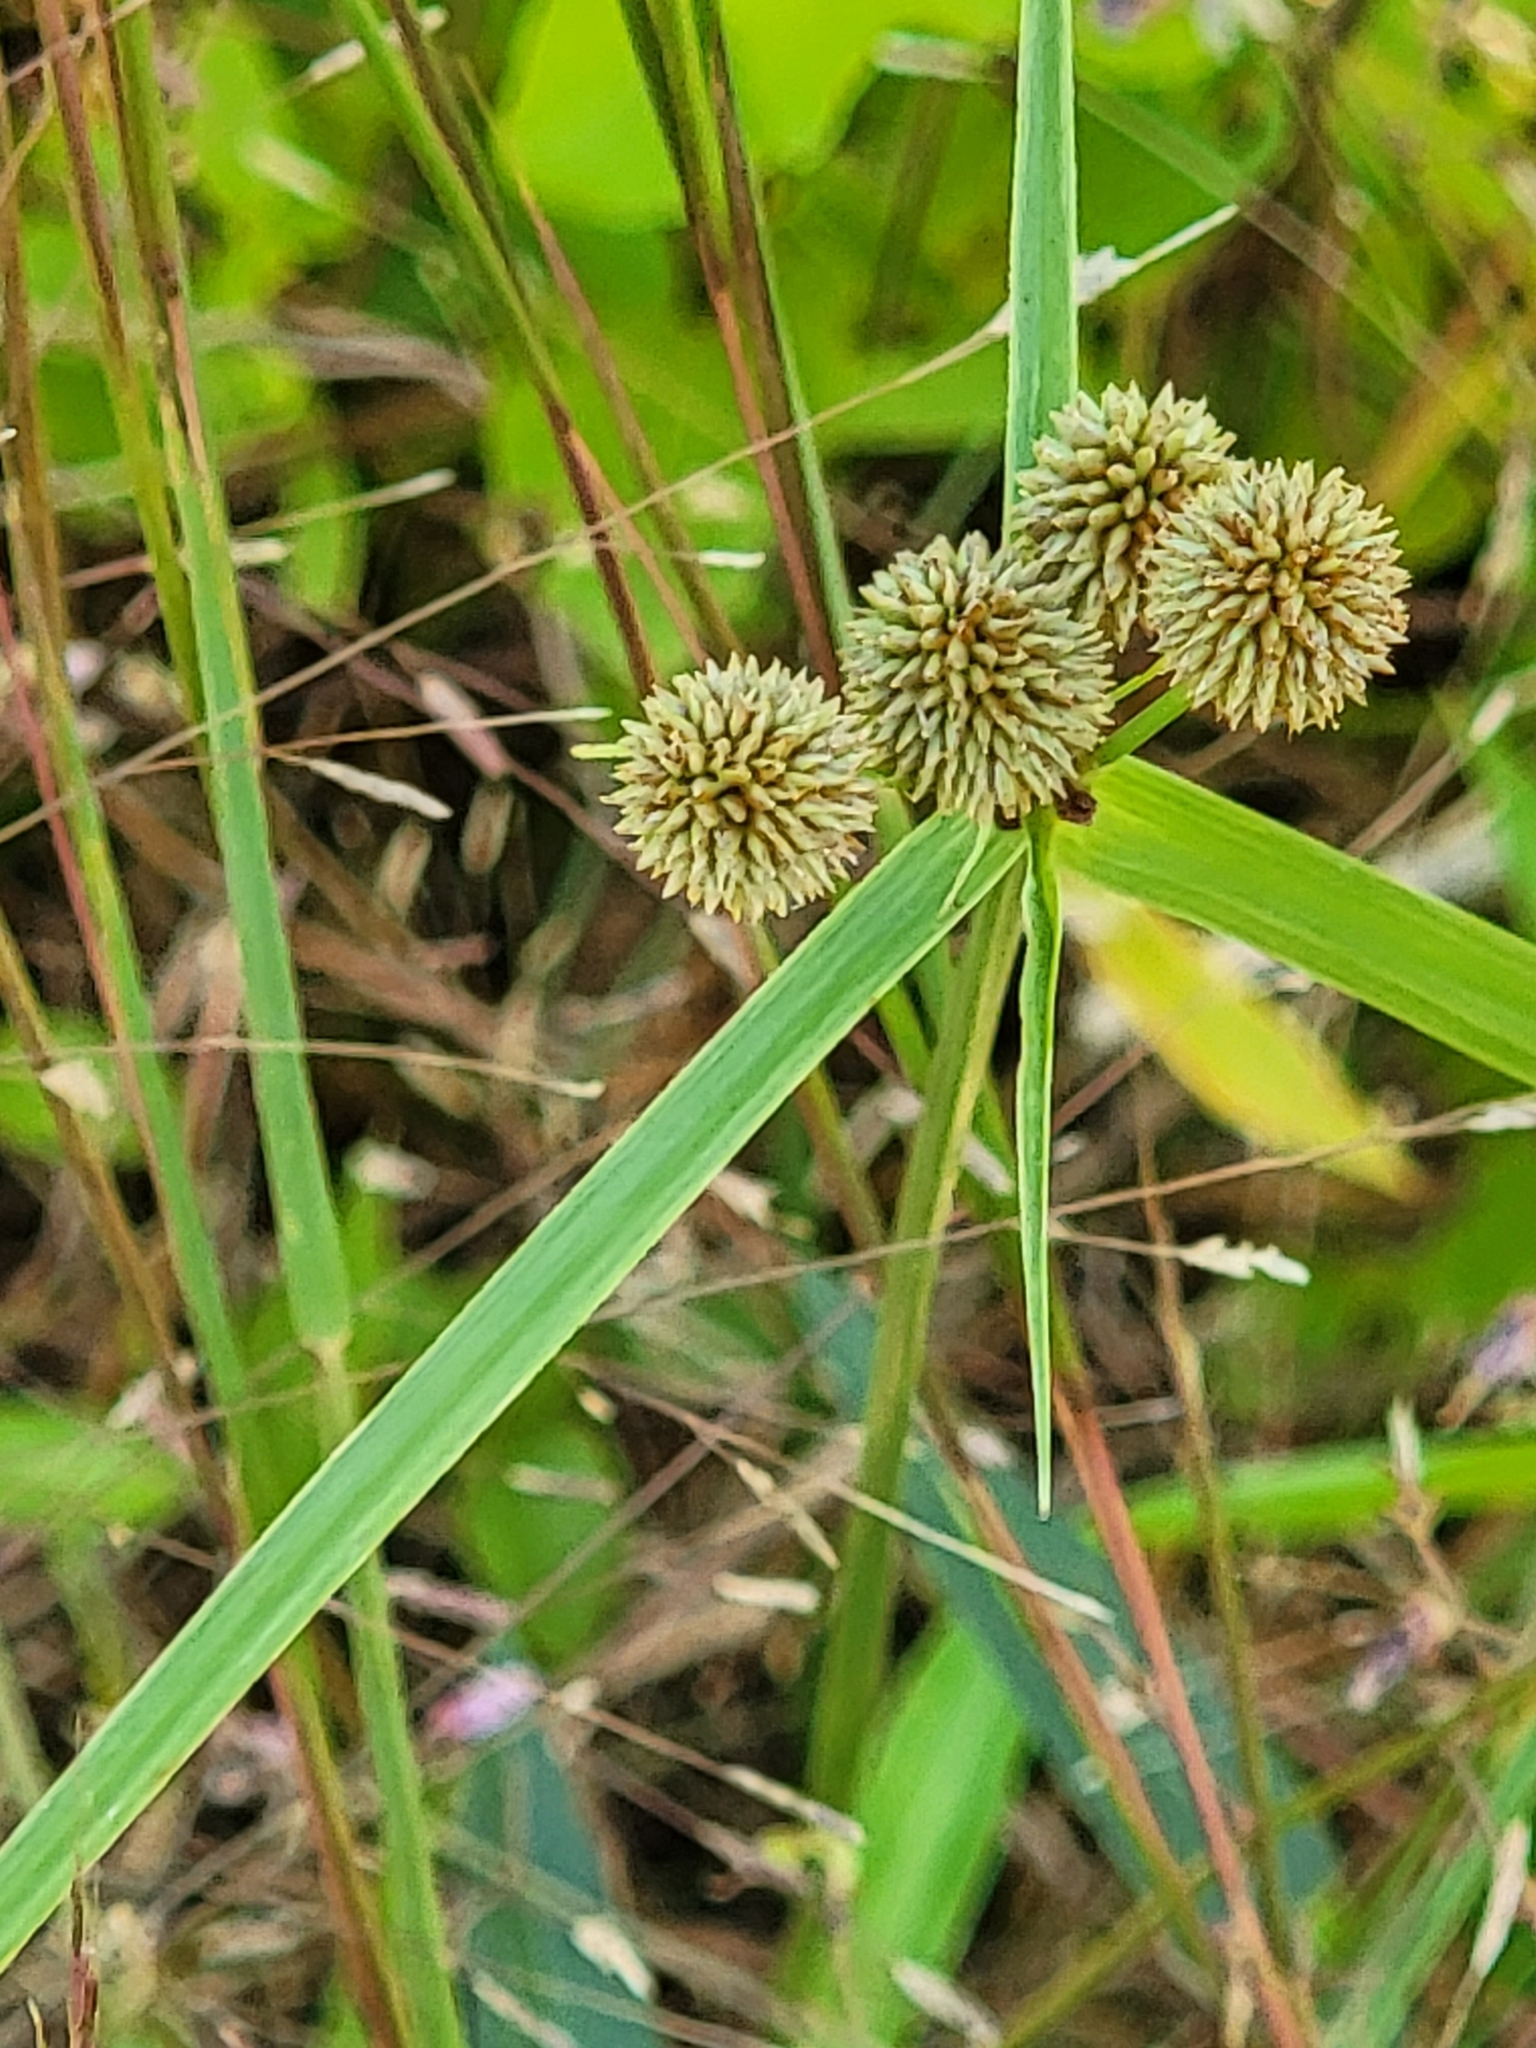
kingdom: Plantae
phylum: Tracheophyta
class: Liliopsida
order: Poales
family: Cyperaceae
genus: Cyperus
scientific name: Cyperus echinatus
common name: Teasel sedge
